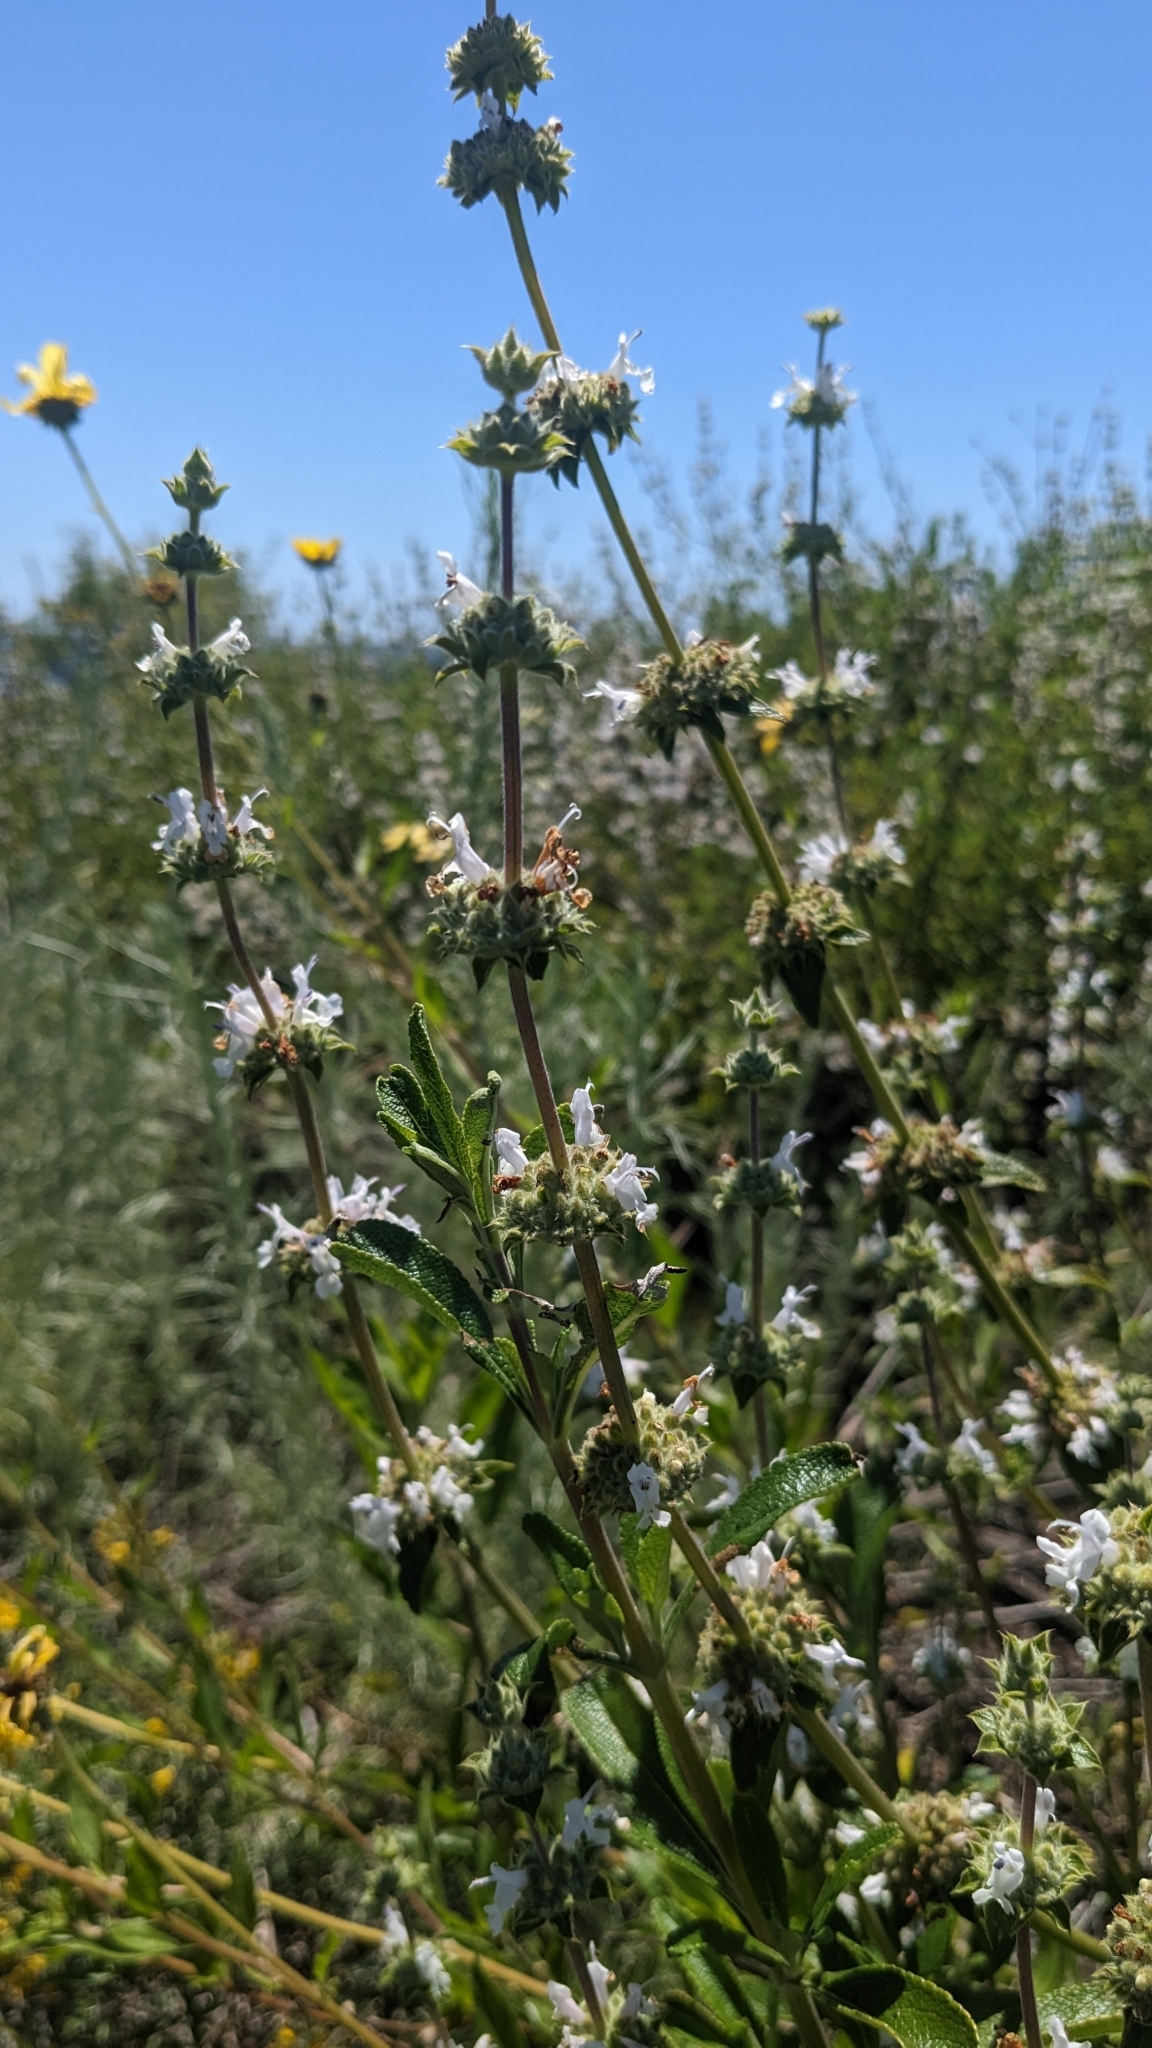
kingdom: Plantae
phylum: Tracheophyta
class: Magnoliopsida
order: Lamiales
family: Lamiaceae
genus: Salvia
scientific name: Salvia mellifera
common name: Black sage
